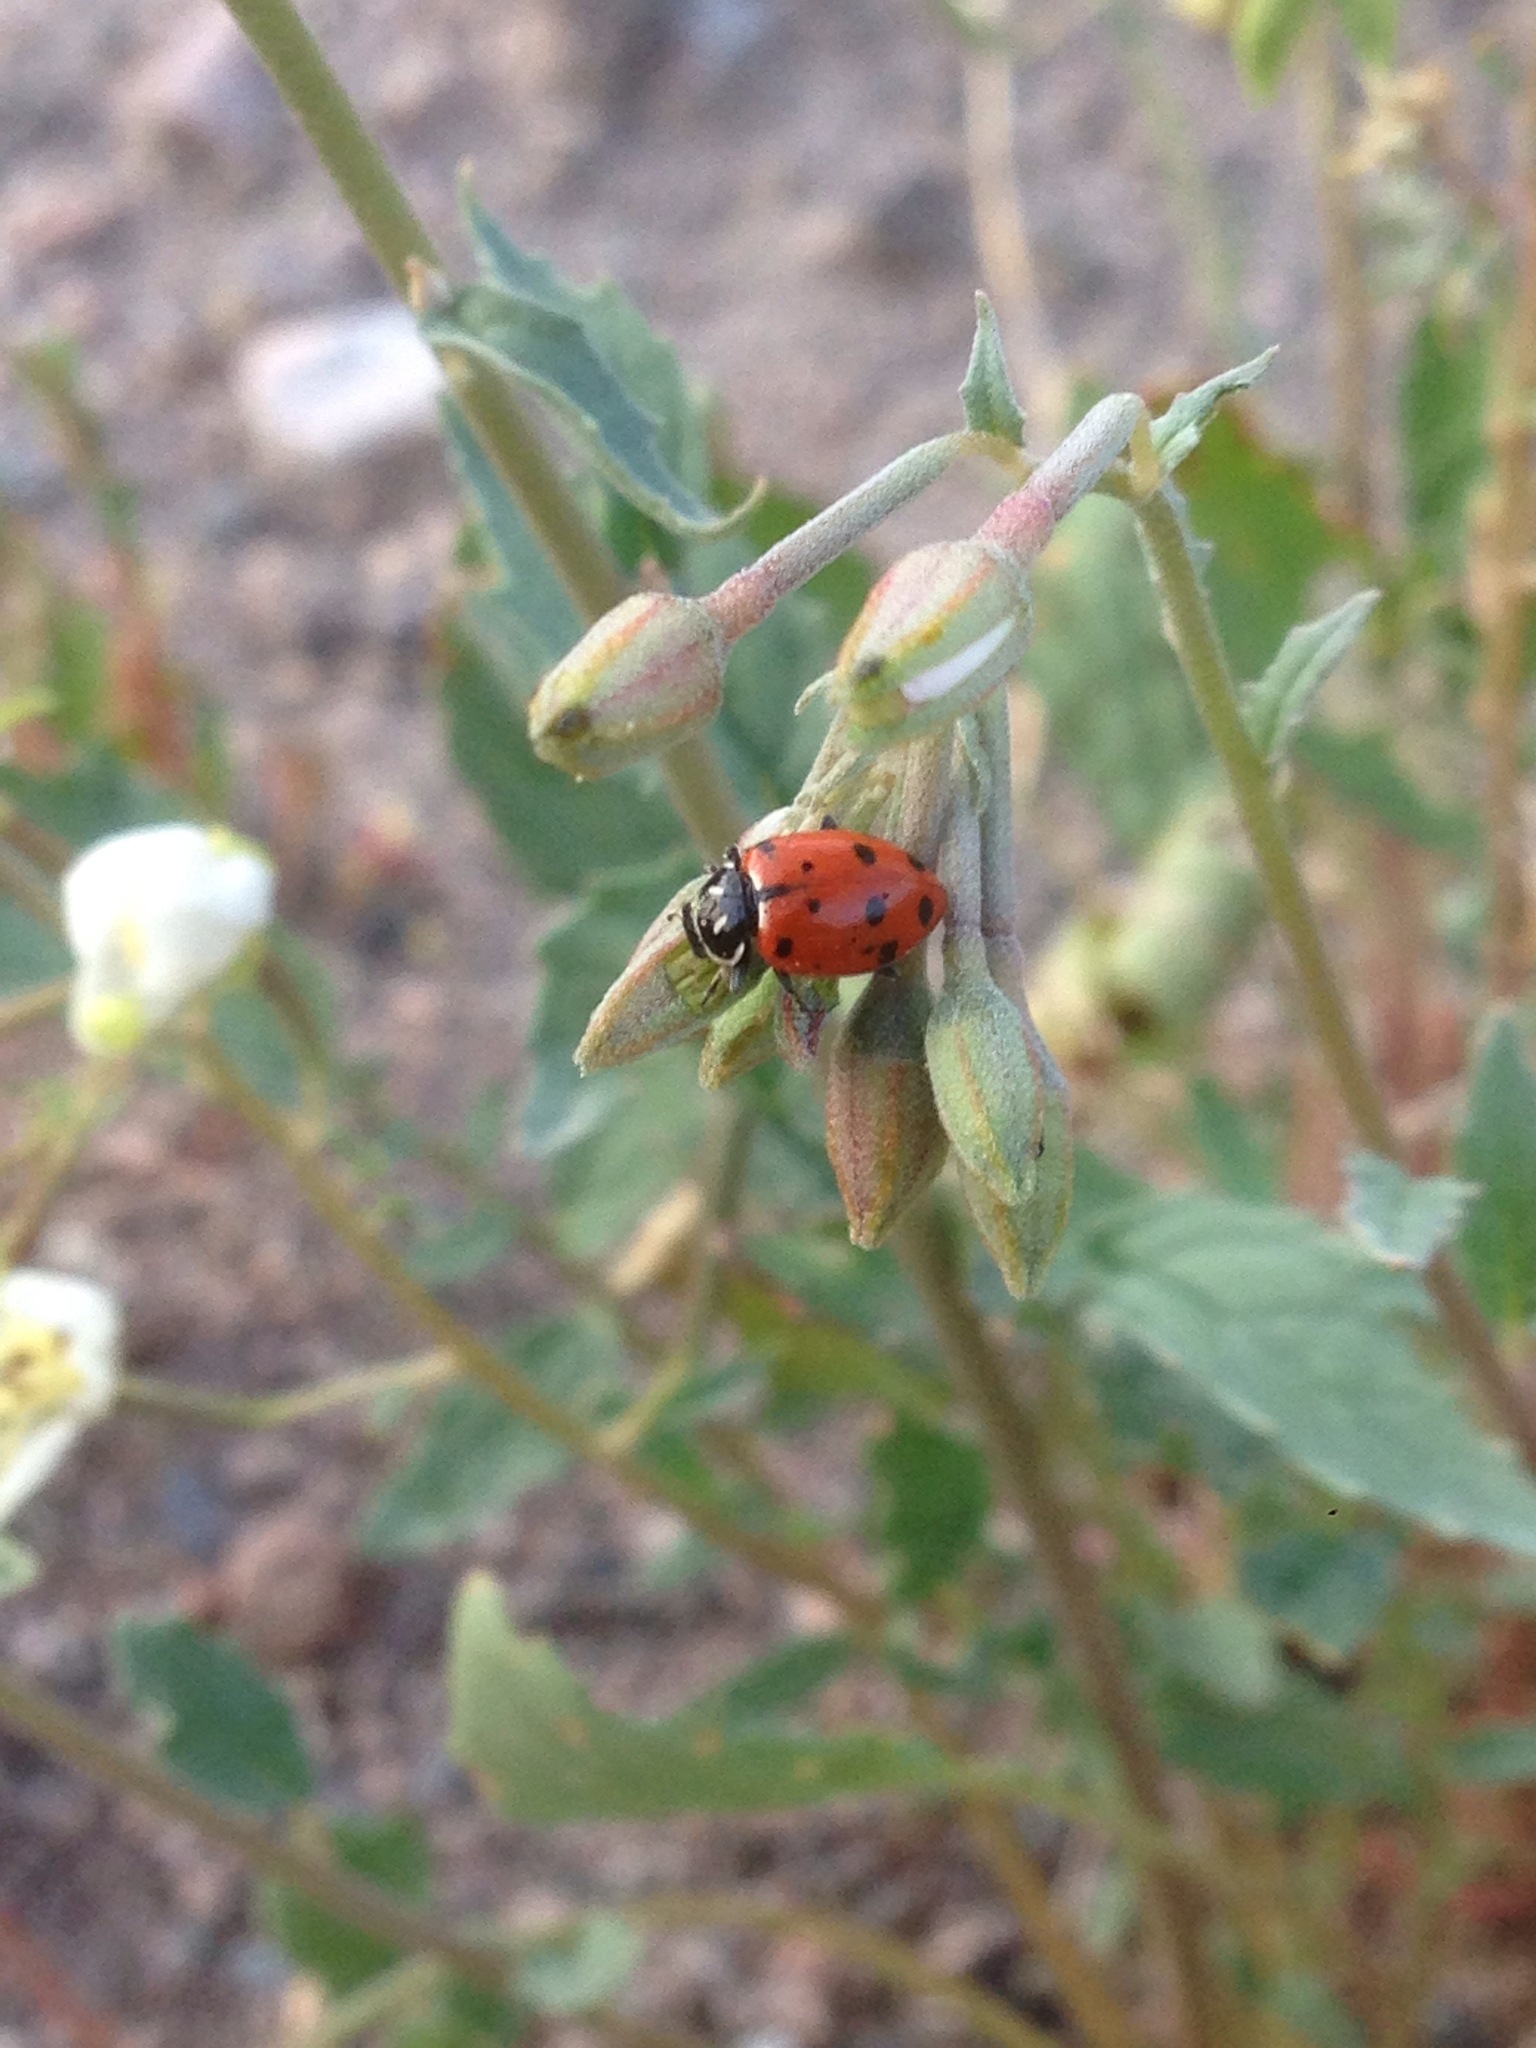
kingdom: Animalia
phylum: Arthropoda
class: Insecta
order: Coleoptera
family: Coccinellidae
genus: Hippodamia
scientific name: Hippodamia convergens
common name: Convergent lady beetle
